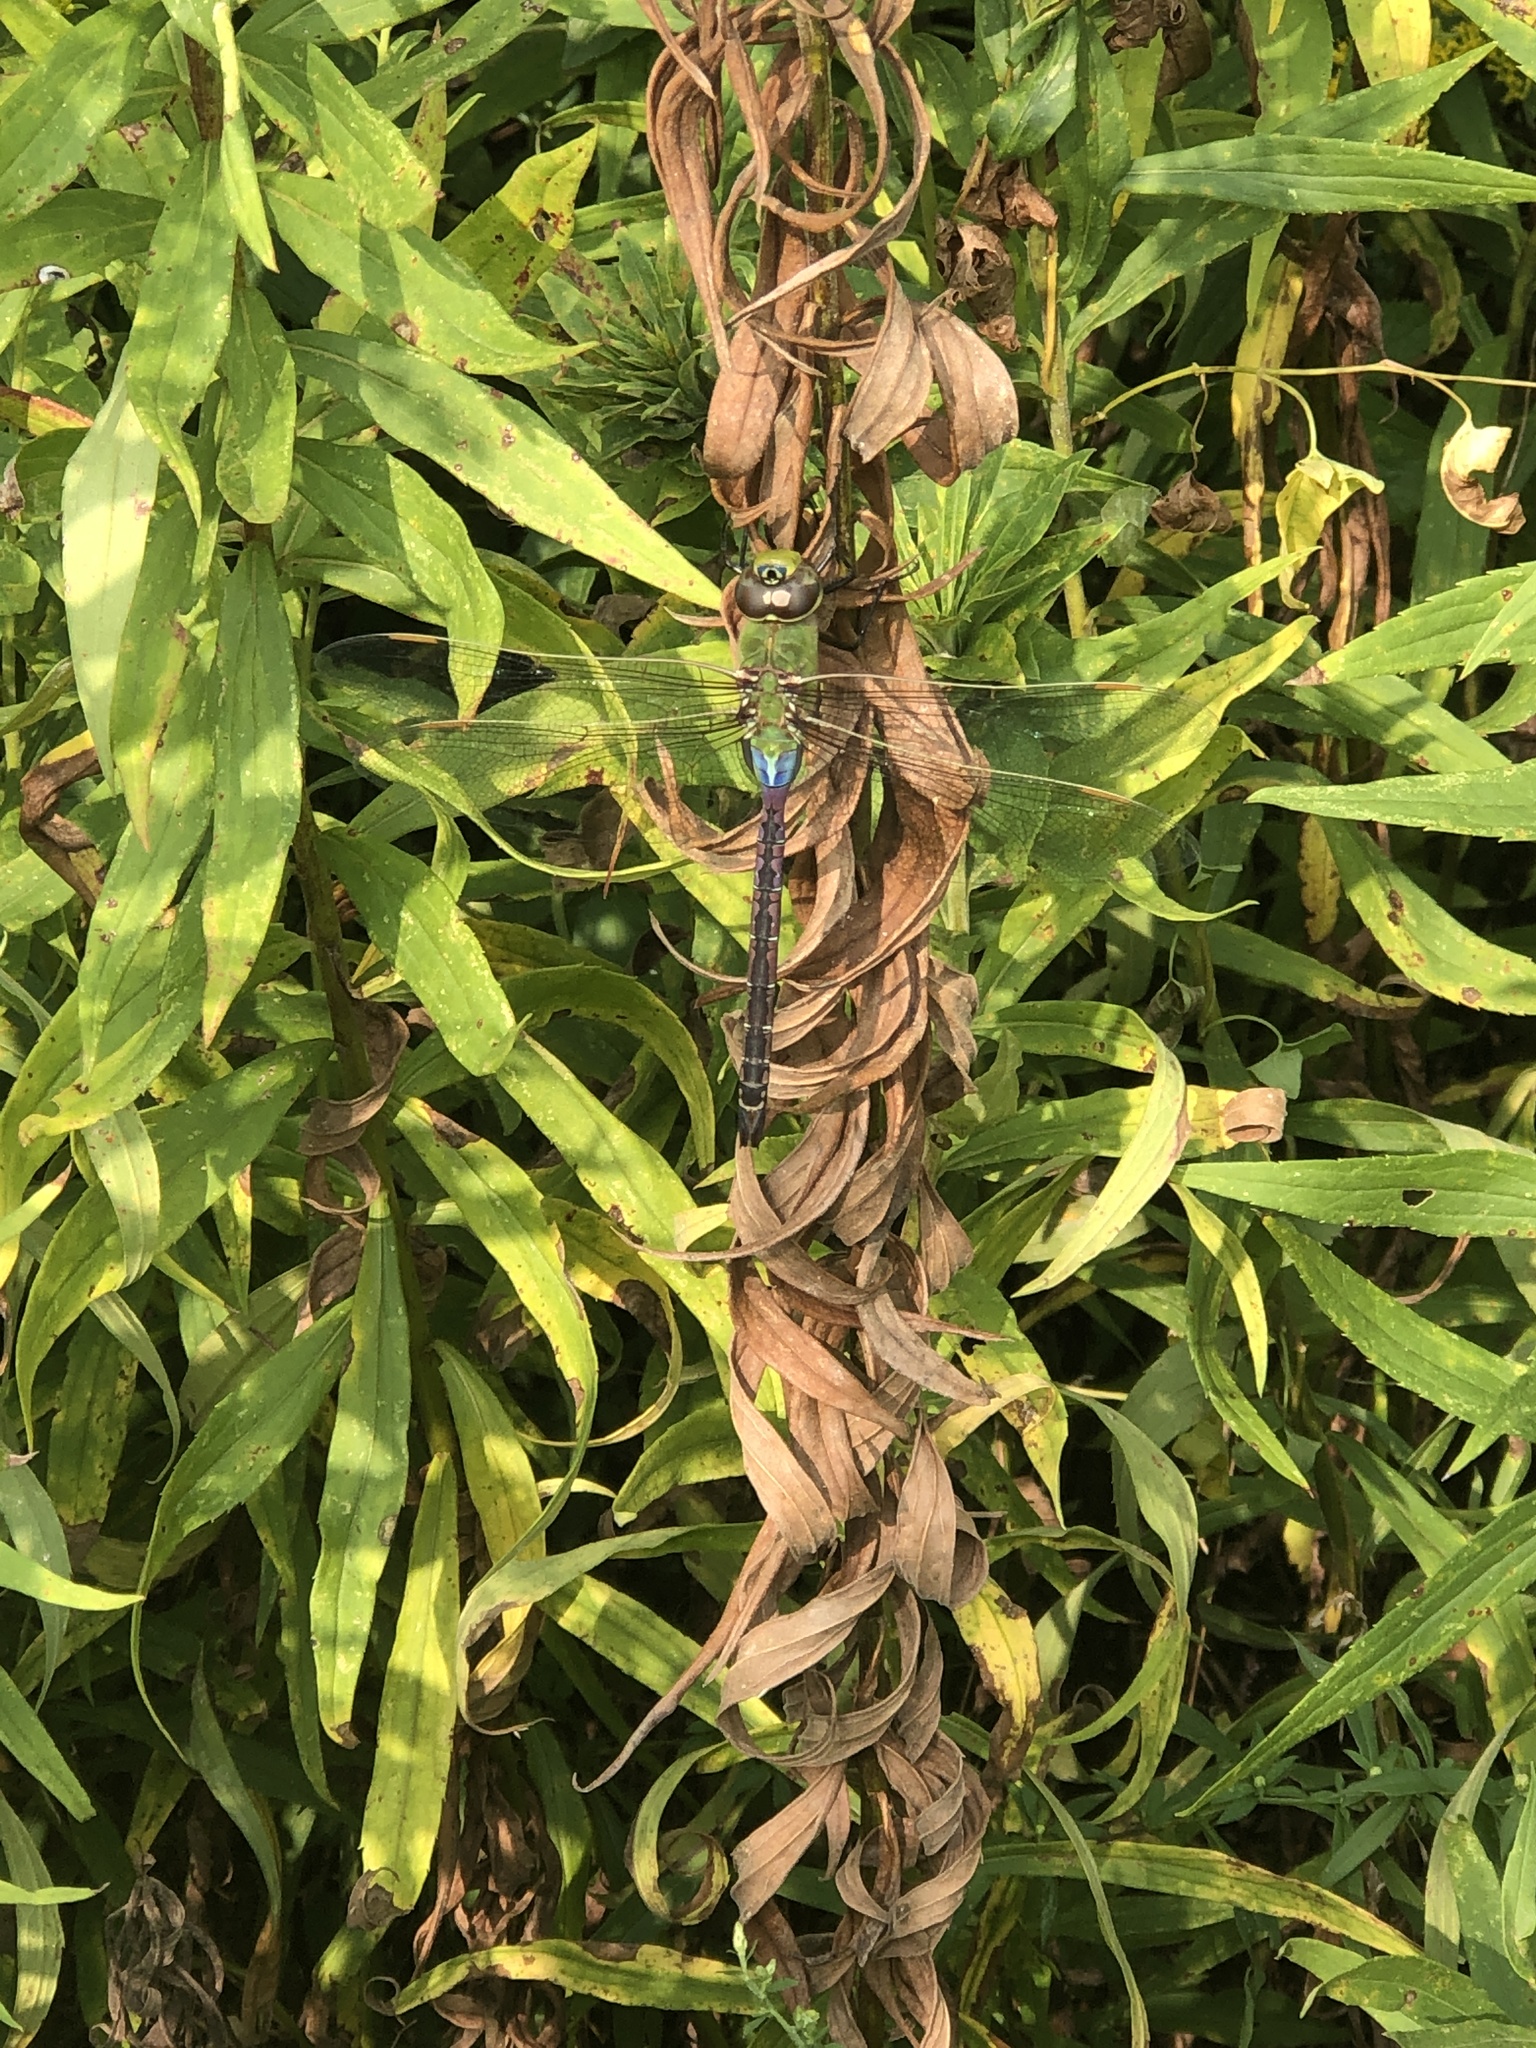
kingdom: Animalia
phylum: Arthropoda
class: Insecta
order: Odonata
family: Aeshnidae
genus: Anax
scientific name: Anax junius
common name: Common green darner
